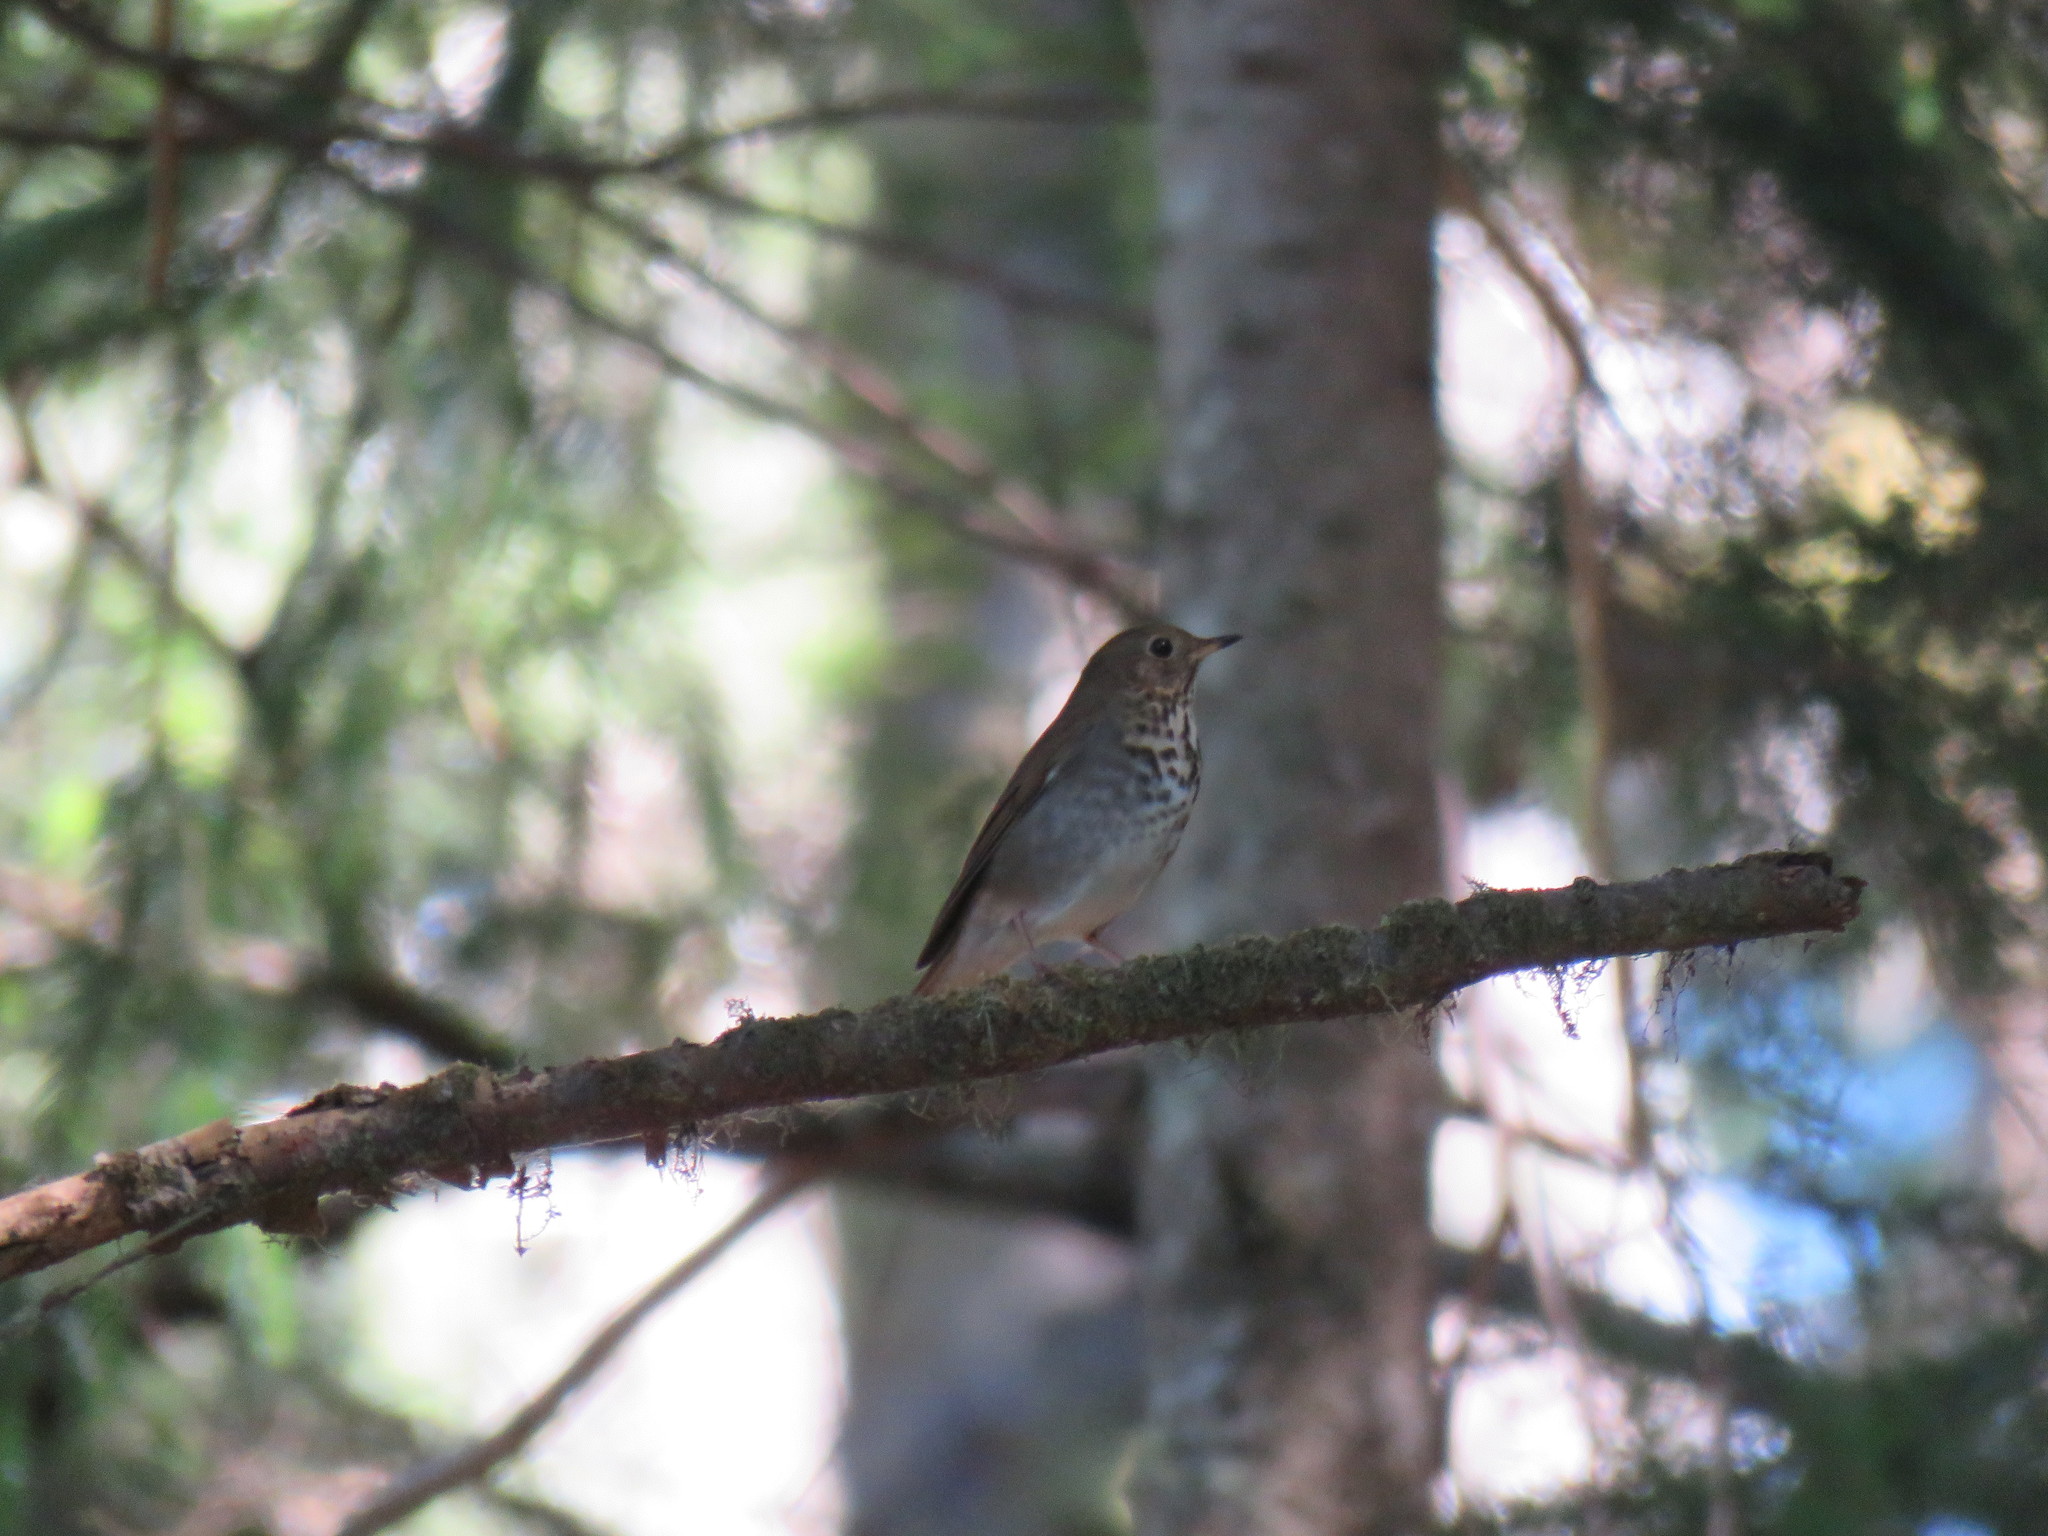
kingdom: Animalia
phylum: Chordata
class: Aves
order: Passeriformes
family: Turdidae
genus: Catharus
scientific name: Catharus guttatus
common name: Hermit thrush
